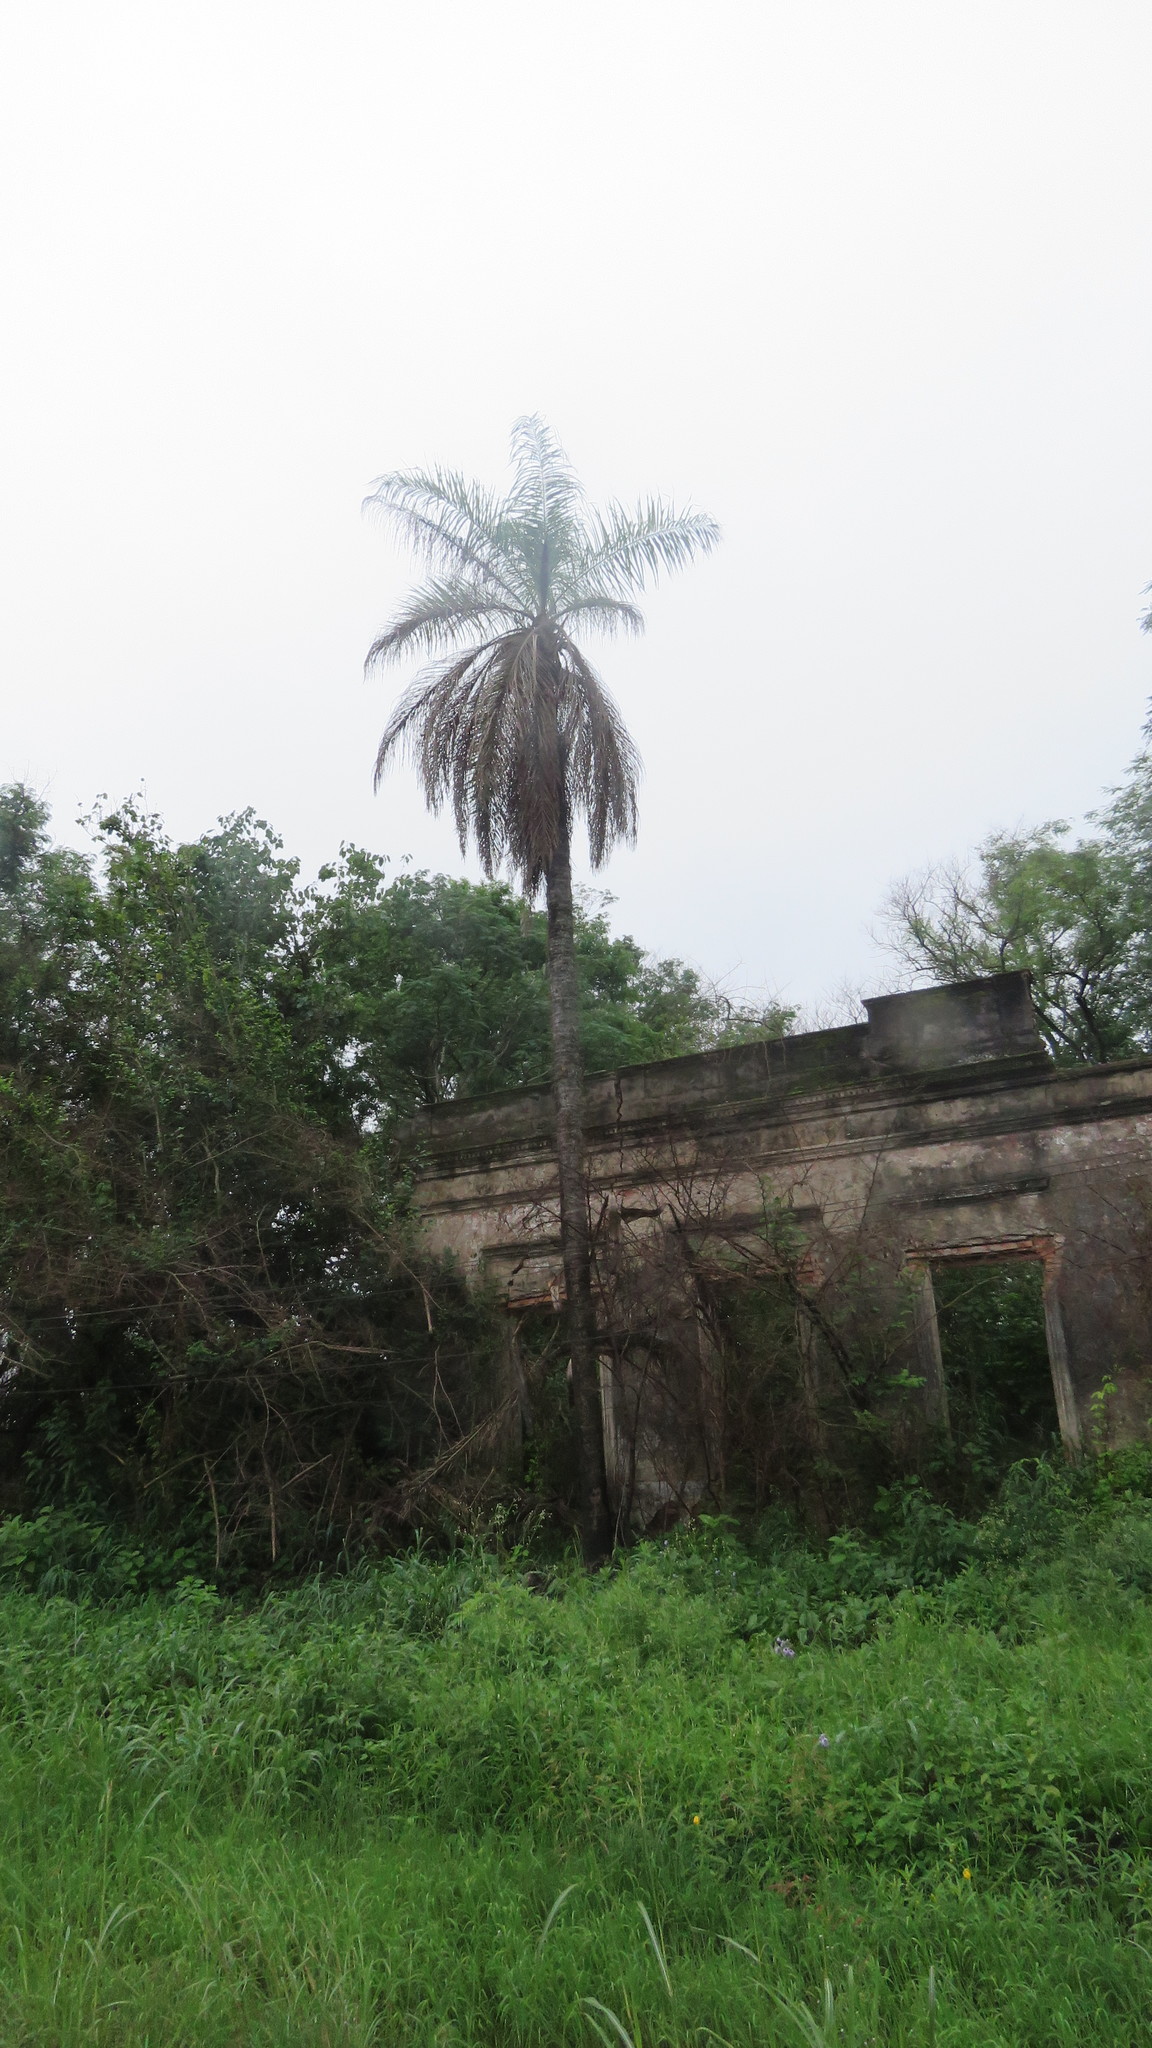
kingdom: Plantae
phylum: Tracheophyta
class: Liliopsida
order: Arecales
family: Arecaceae
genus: Acrocomia
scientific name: Acrocomia aculeata
